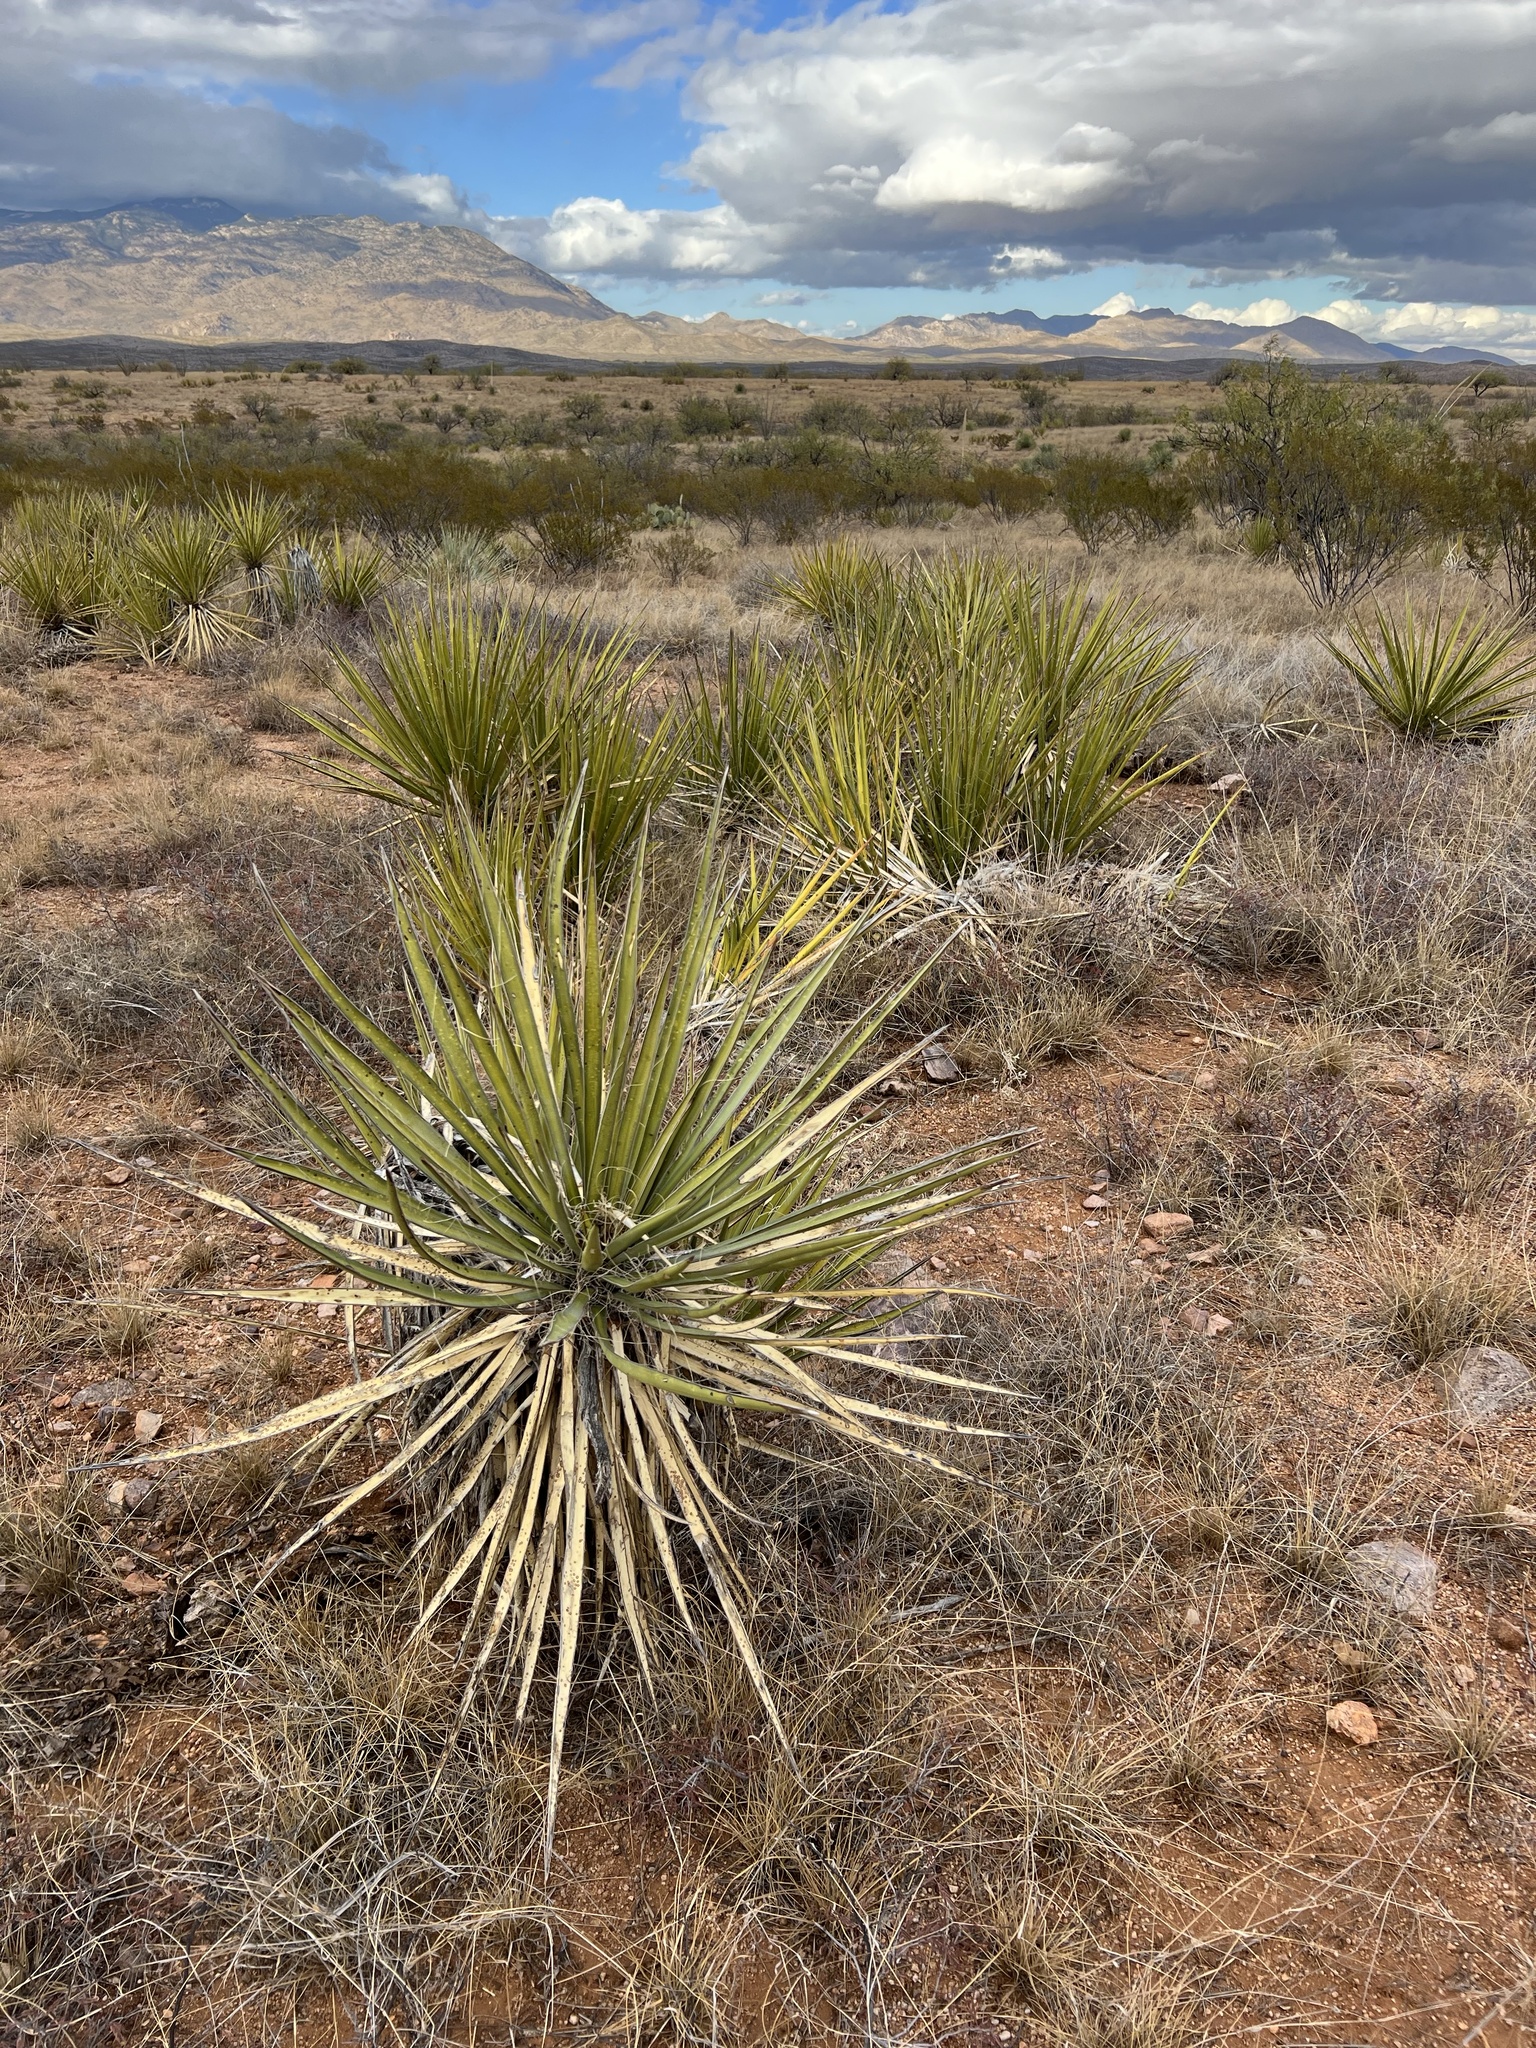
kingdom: Plantae
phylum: Tracheophyta
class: Liliopsida
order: Asparagales
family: Asparagaceae
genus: Yucca
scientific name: Yucca baccata
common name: Banana yucca
